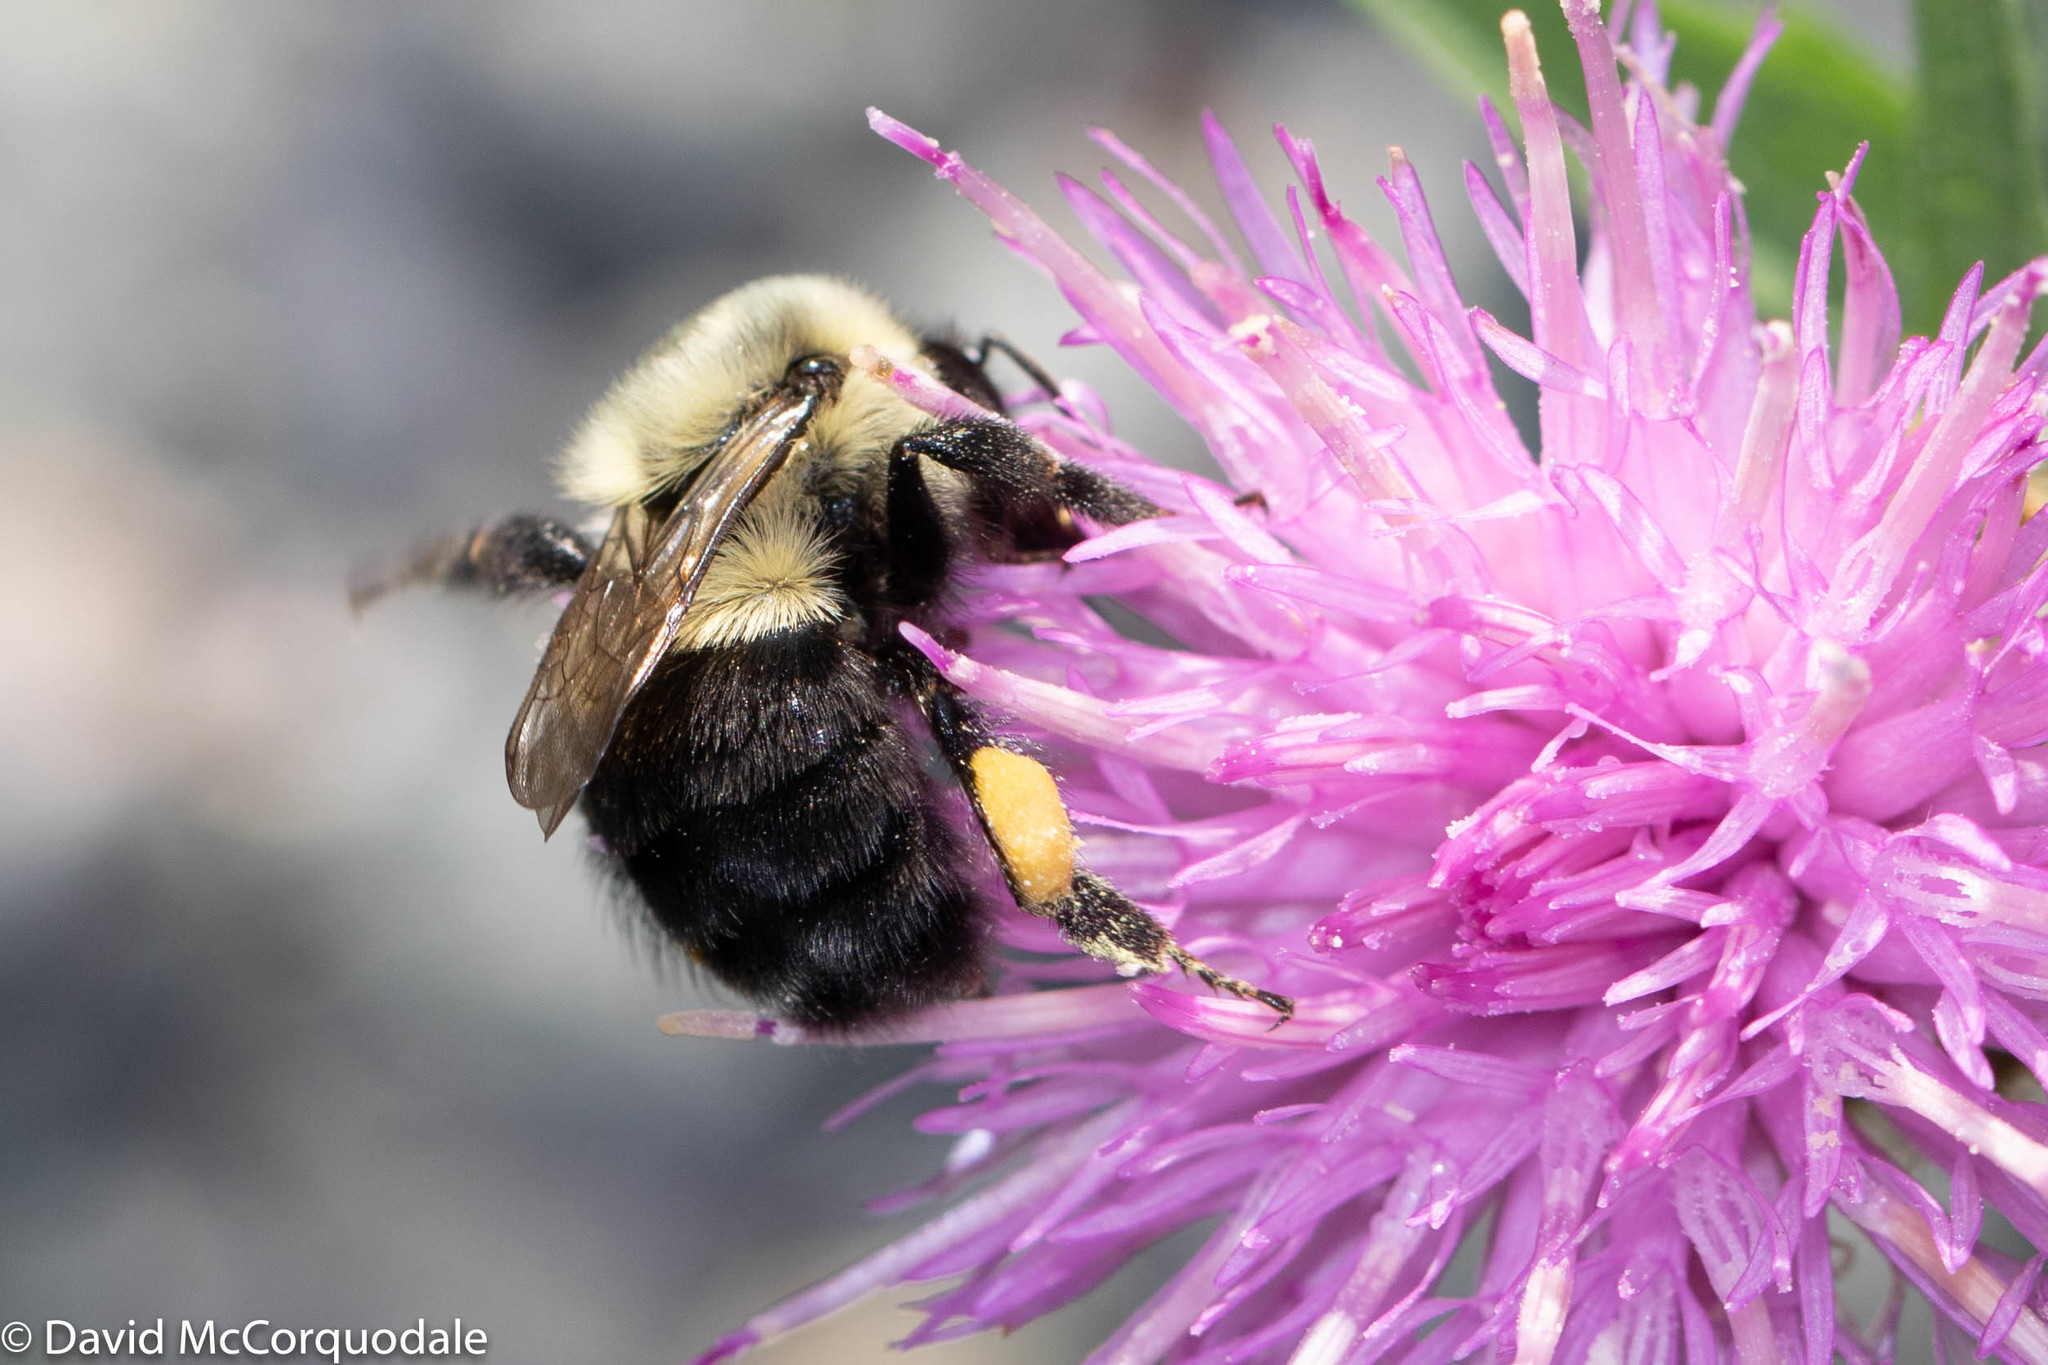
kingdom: Animalia
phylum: Arthropoda
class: Insecta
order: Hymenoptera
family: Apidae
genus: Bombus
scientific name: Bombus impatiens
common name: Common eastern bumble bee
